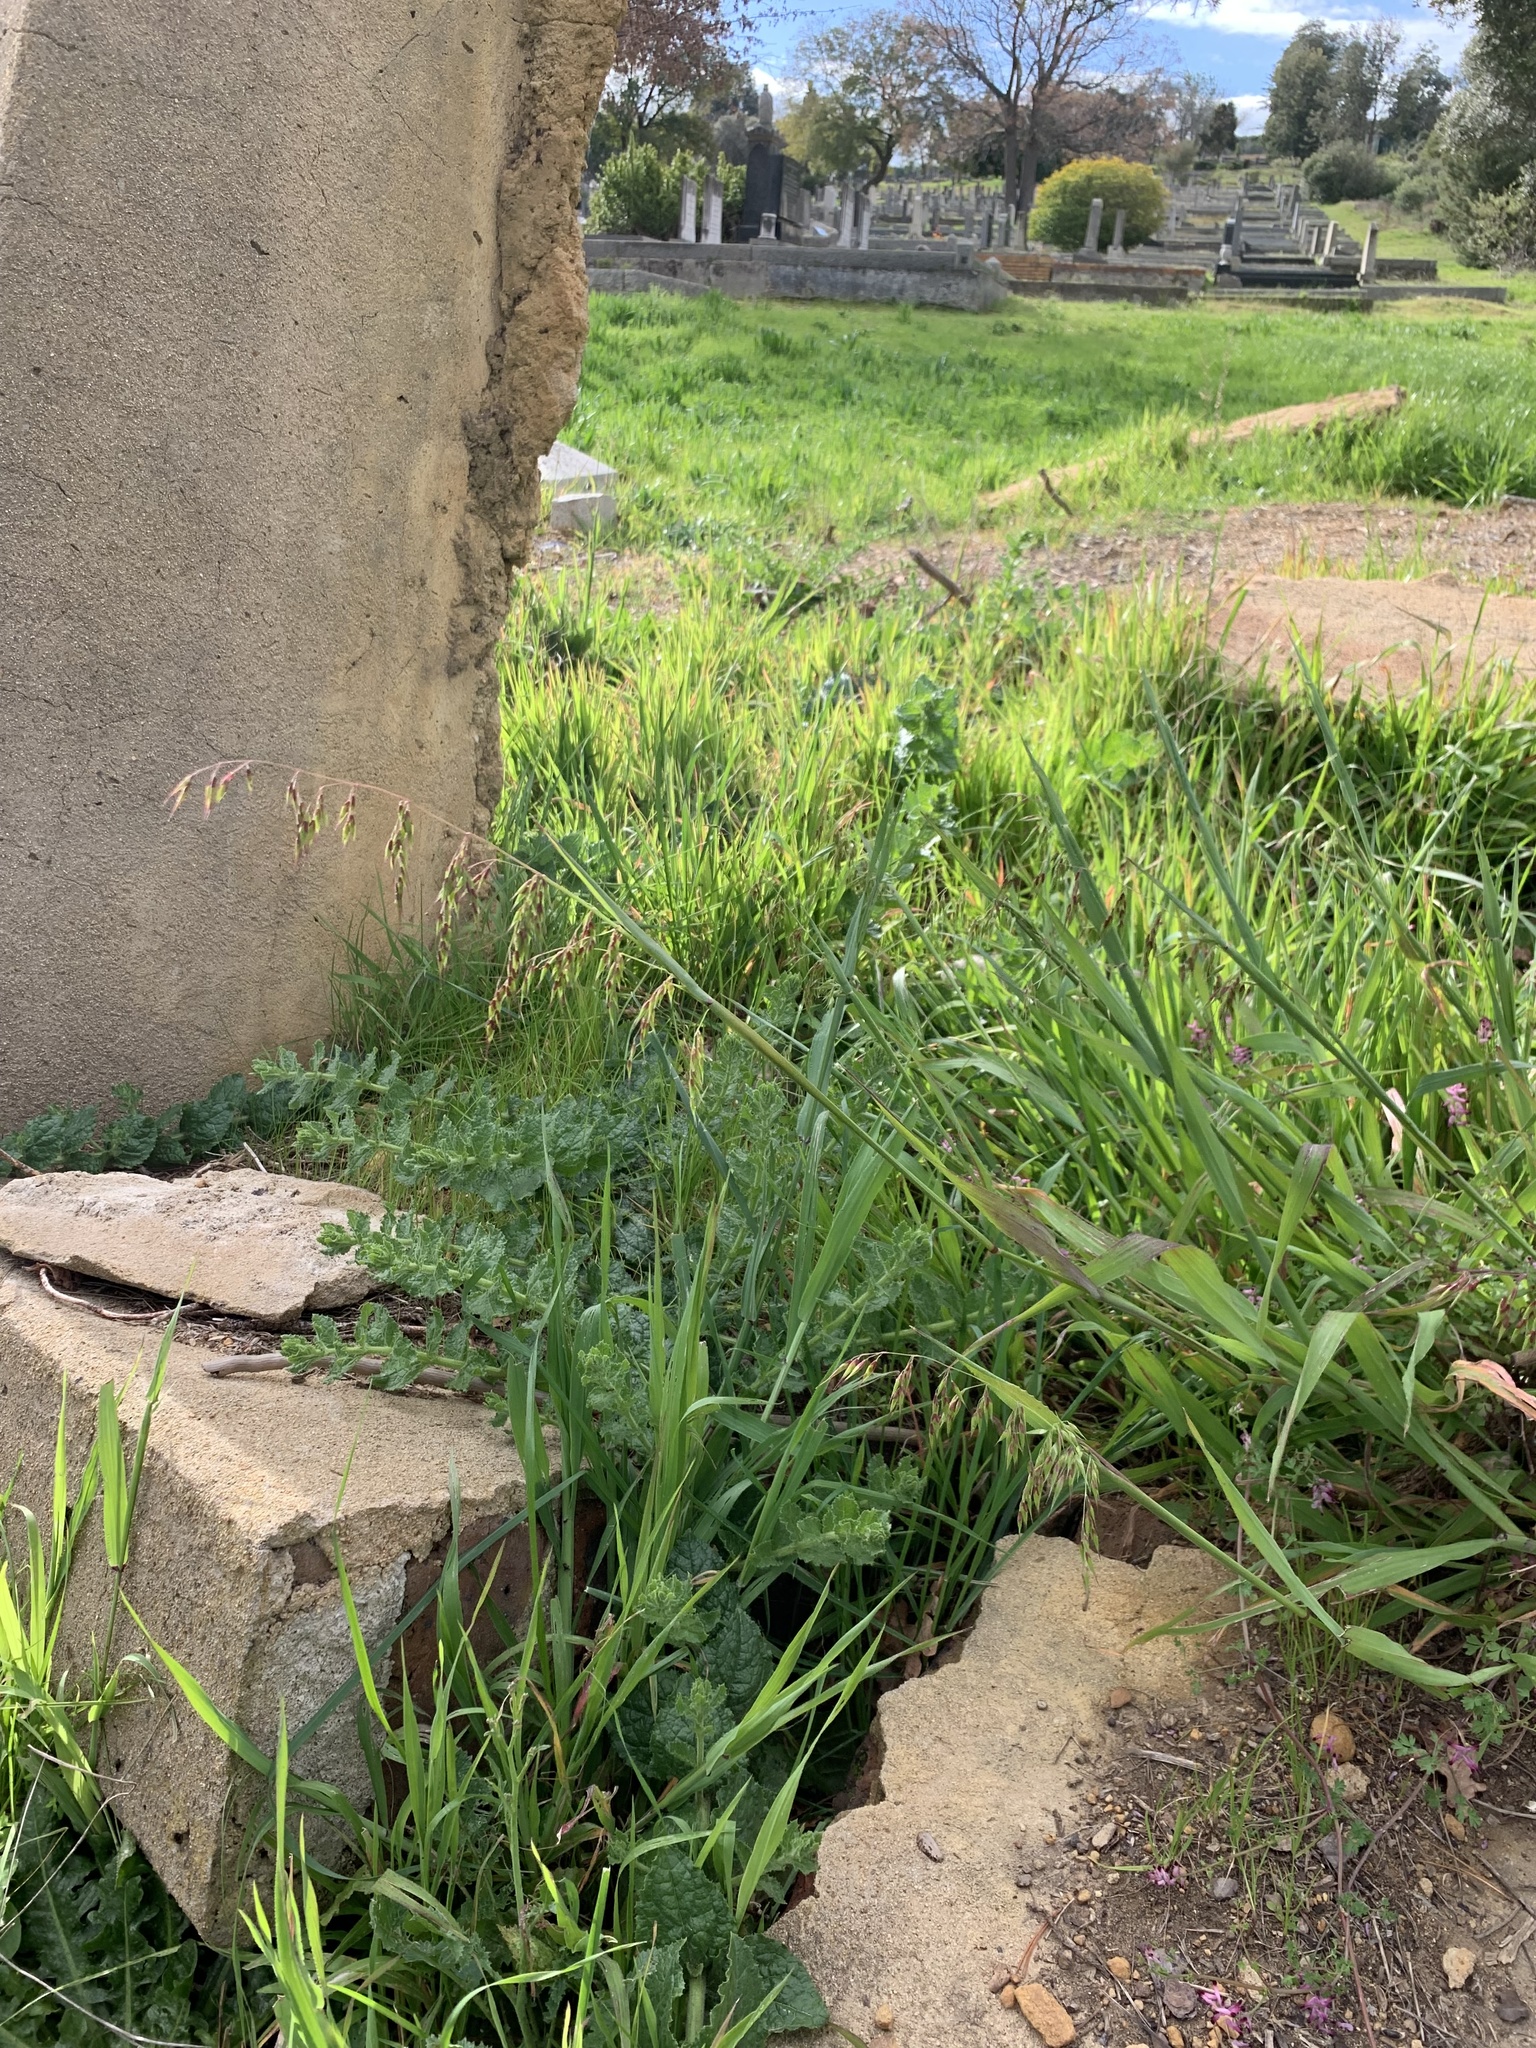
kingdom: Plantae
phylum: Tracheophyta
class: Liliopsida
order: Poales
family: Poaceae
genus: Ehrharta
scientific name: Ehrharta longiflora
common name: Longflowered veldtgrass
